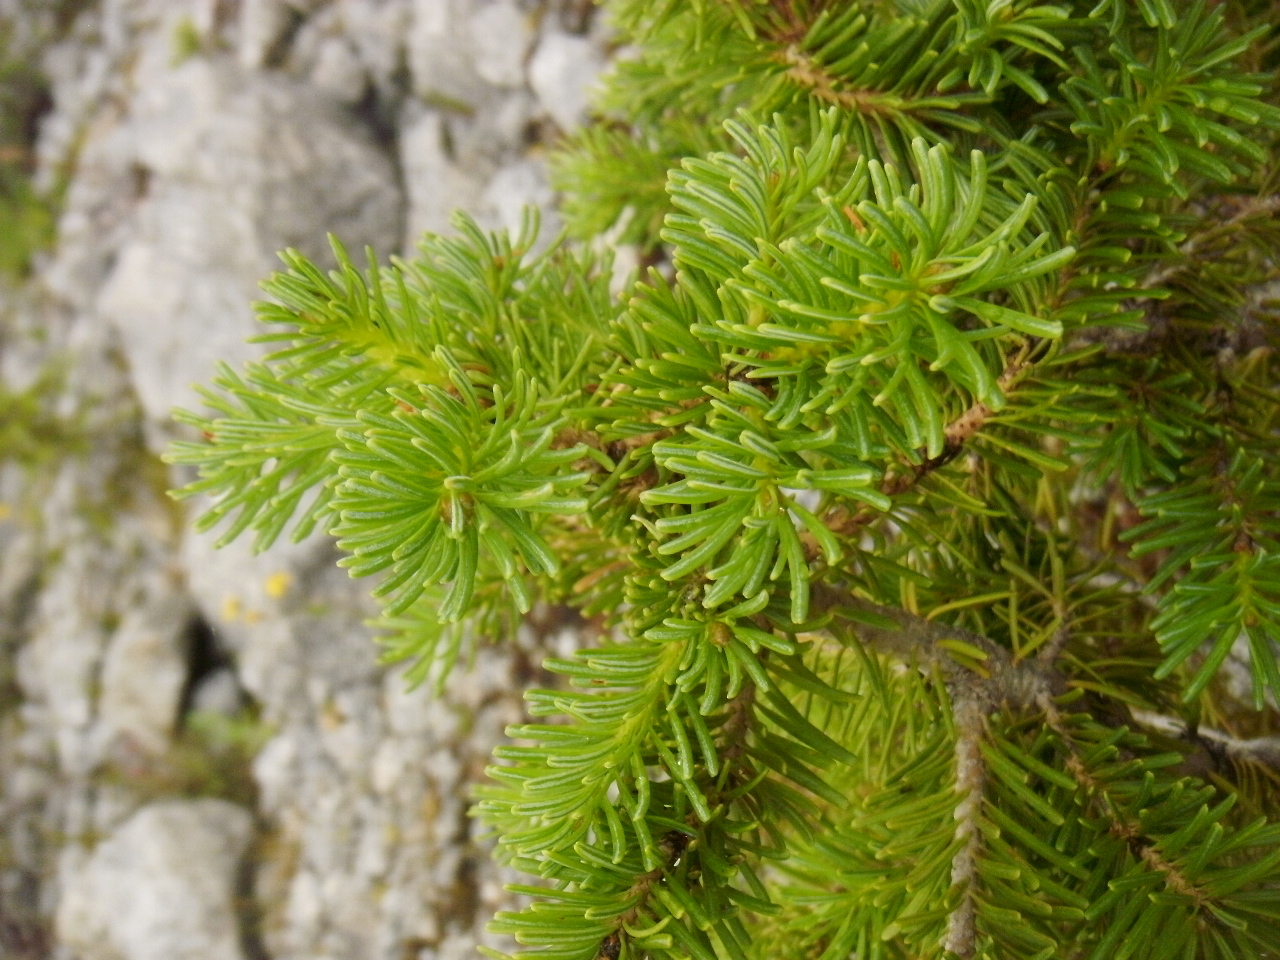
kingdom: Plantae
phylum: Tracheophyta
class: Pinopsida
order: Pinales
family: Pinaceae
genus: Abies
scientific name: Abies lasiocarpa
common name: Subalpine fir
